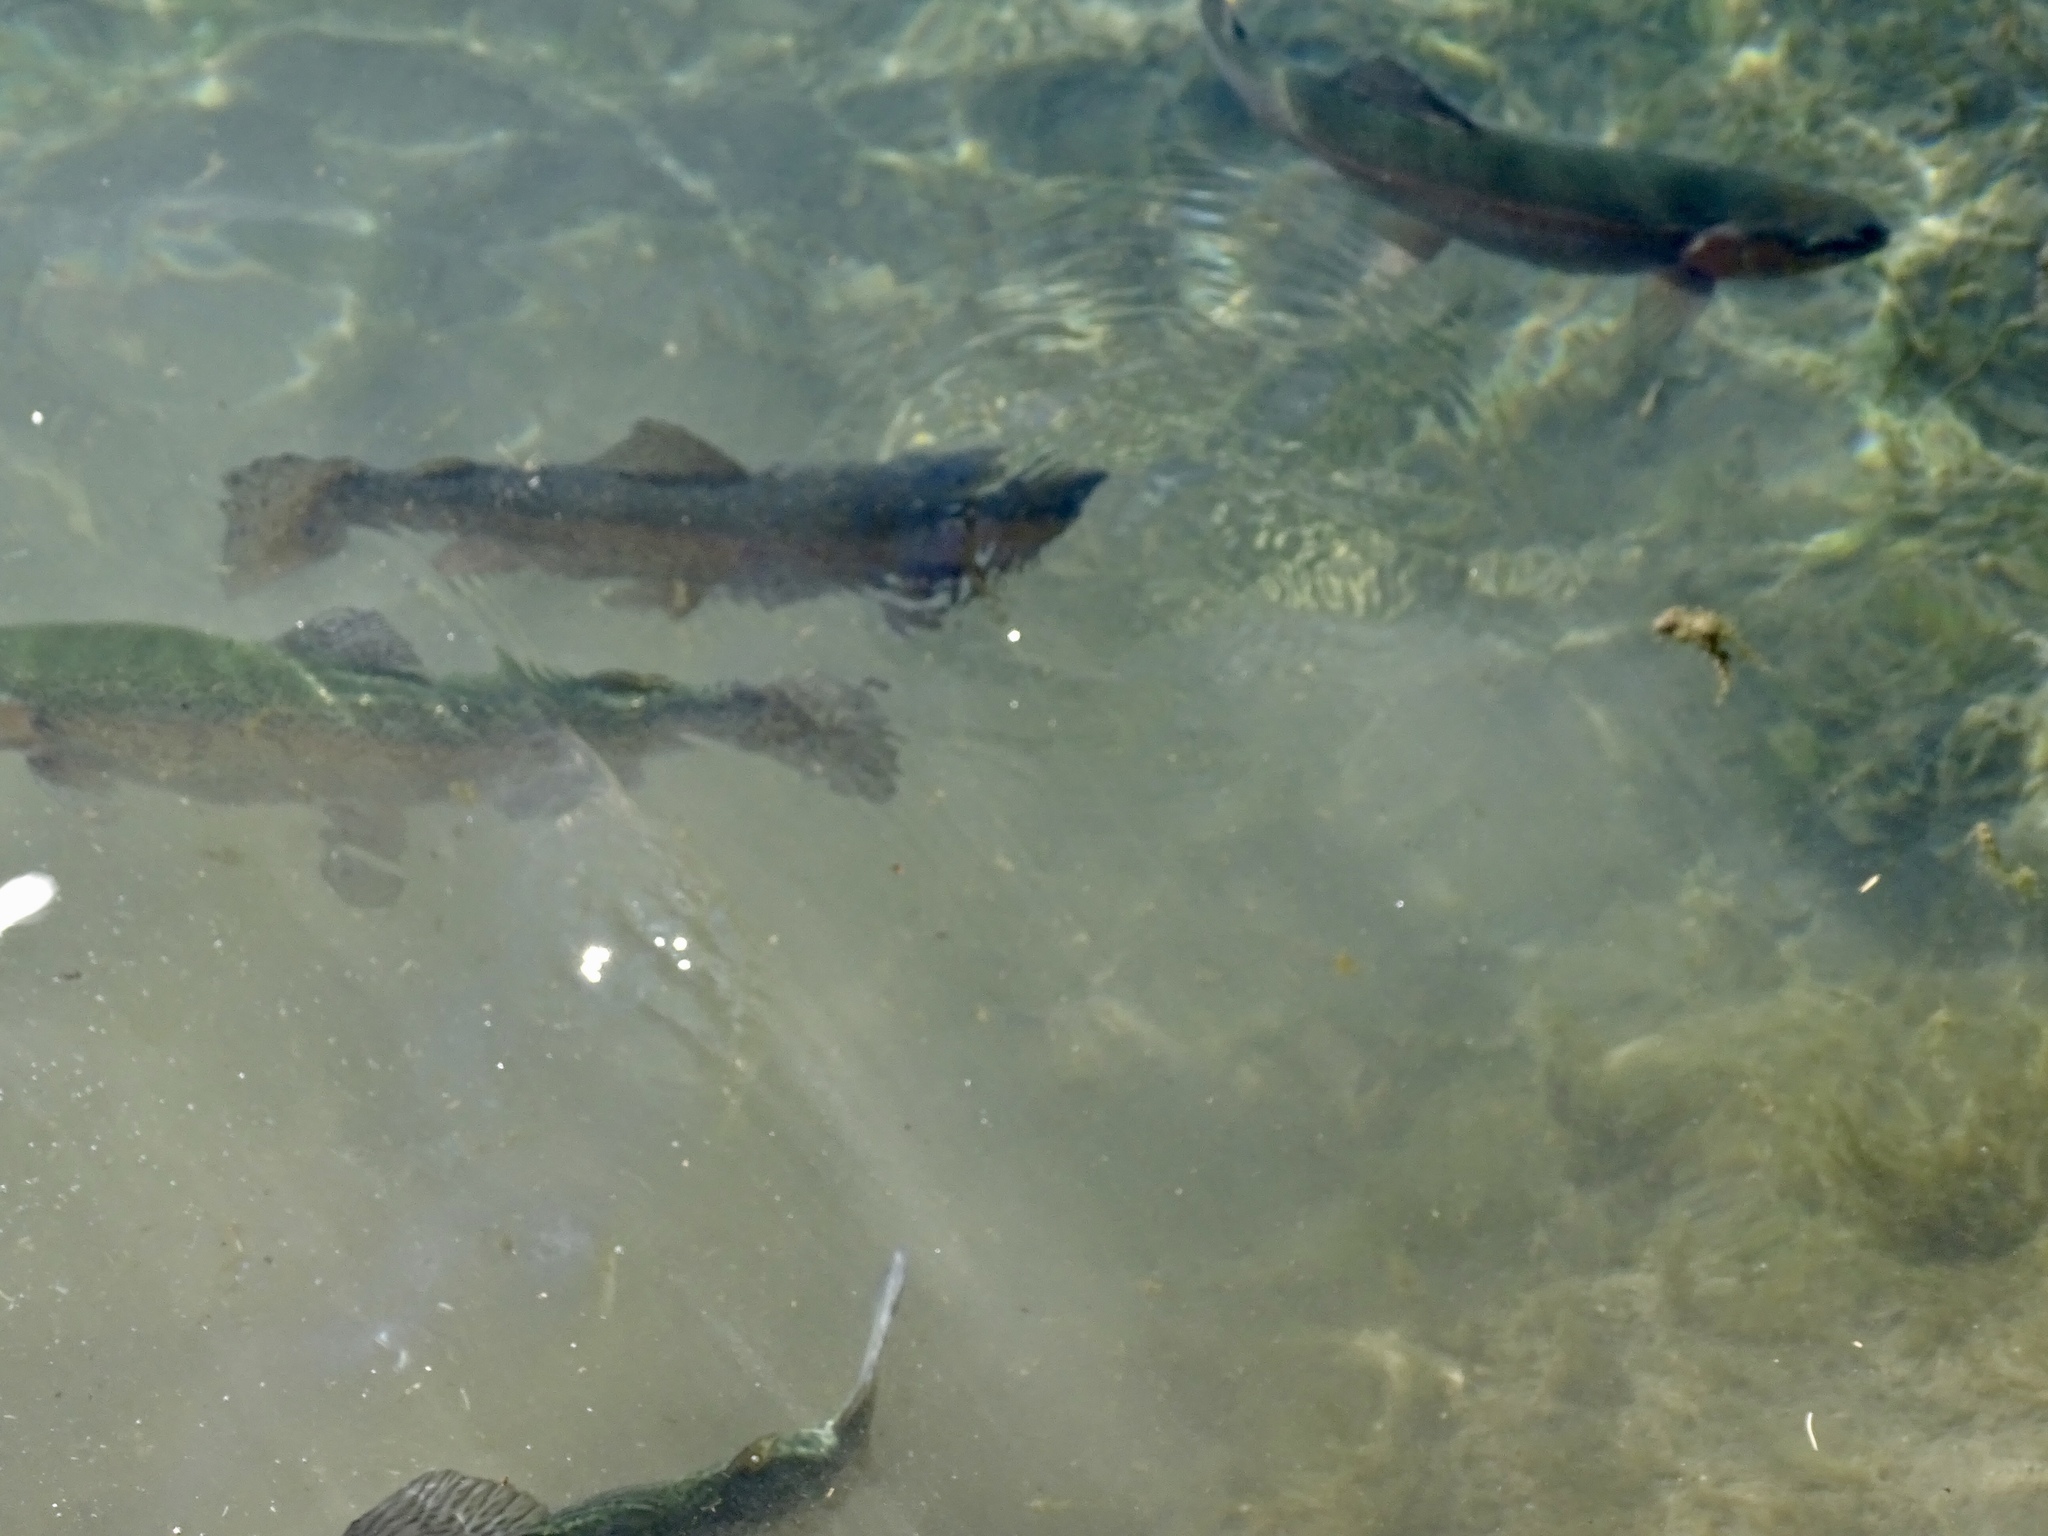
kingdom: Animalia
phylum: Chordata
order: Salmoniformes
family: Salmonidae
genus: Oncorhynchus
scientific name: Oncorhynchus mykiss
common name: Rainbow trout
